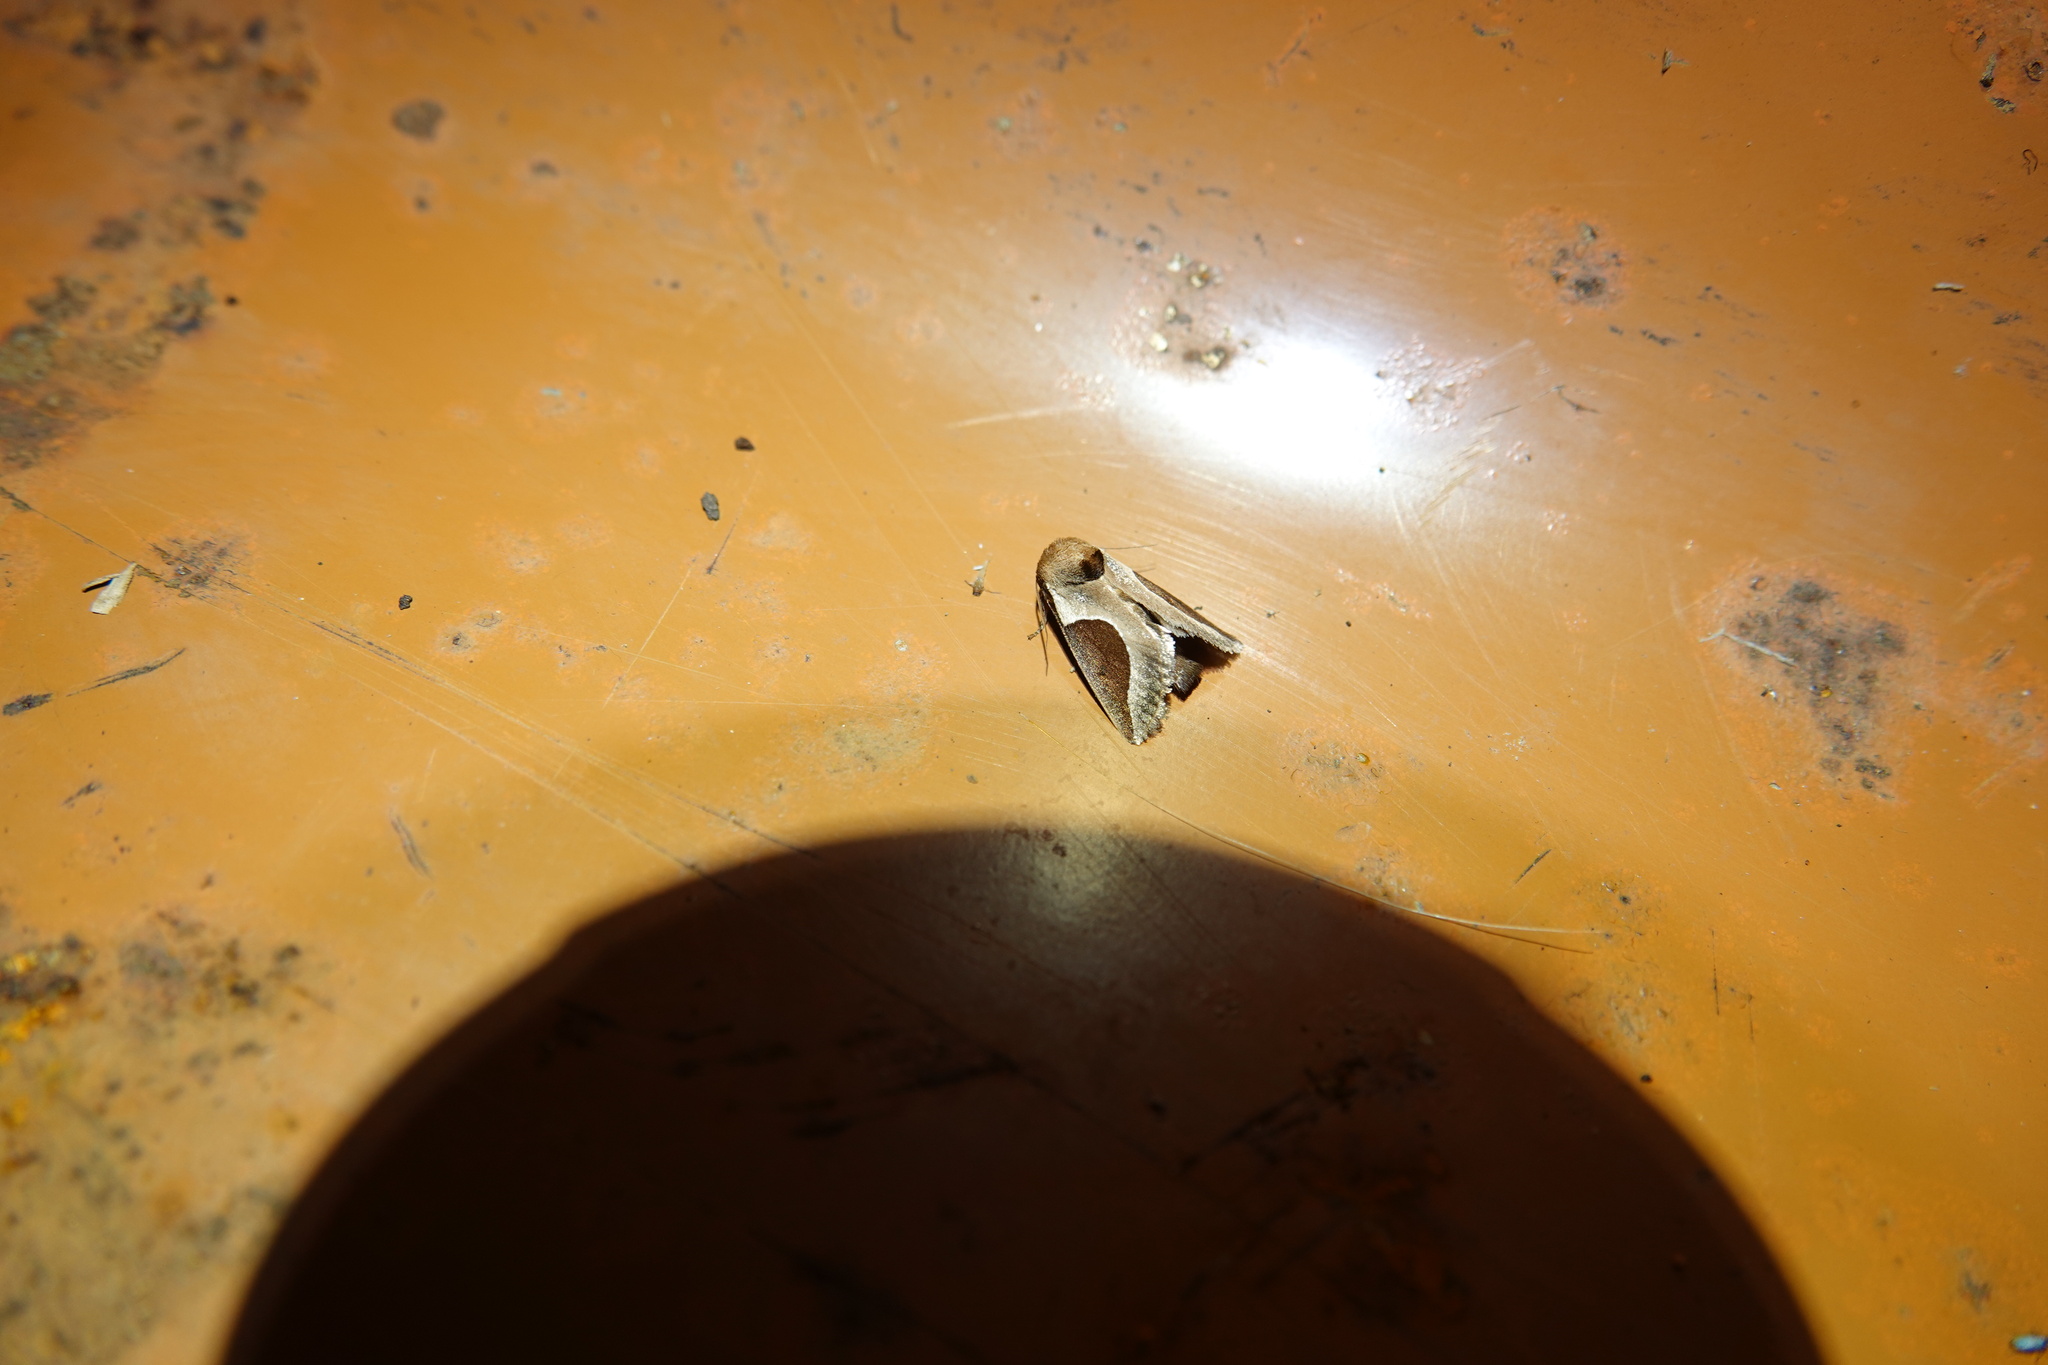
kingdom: Animalia
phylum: Arthropoda
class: Insecta
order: Lepidoptera
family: Limacodidae
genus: Prolimacodes
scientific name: Prolimacodes badia
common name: Skiff moth
